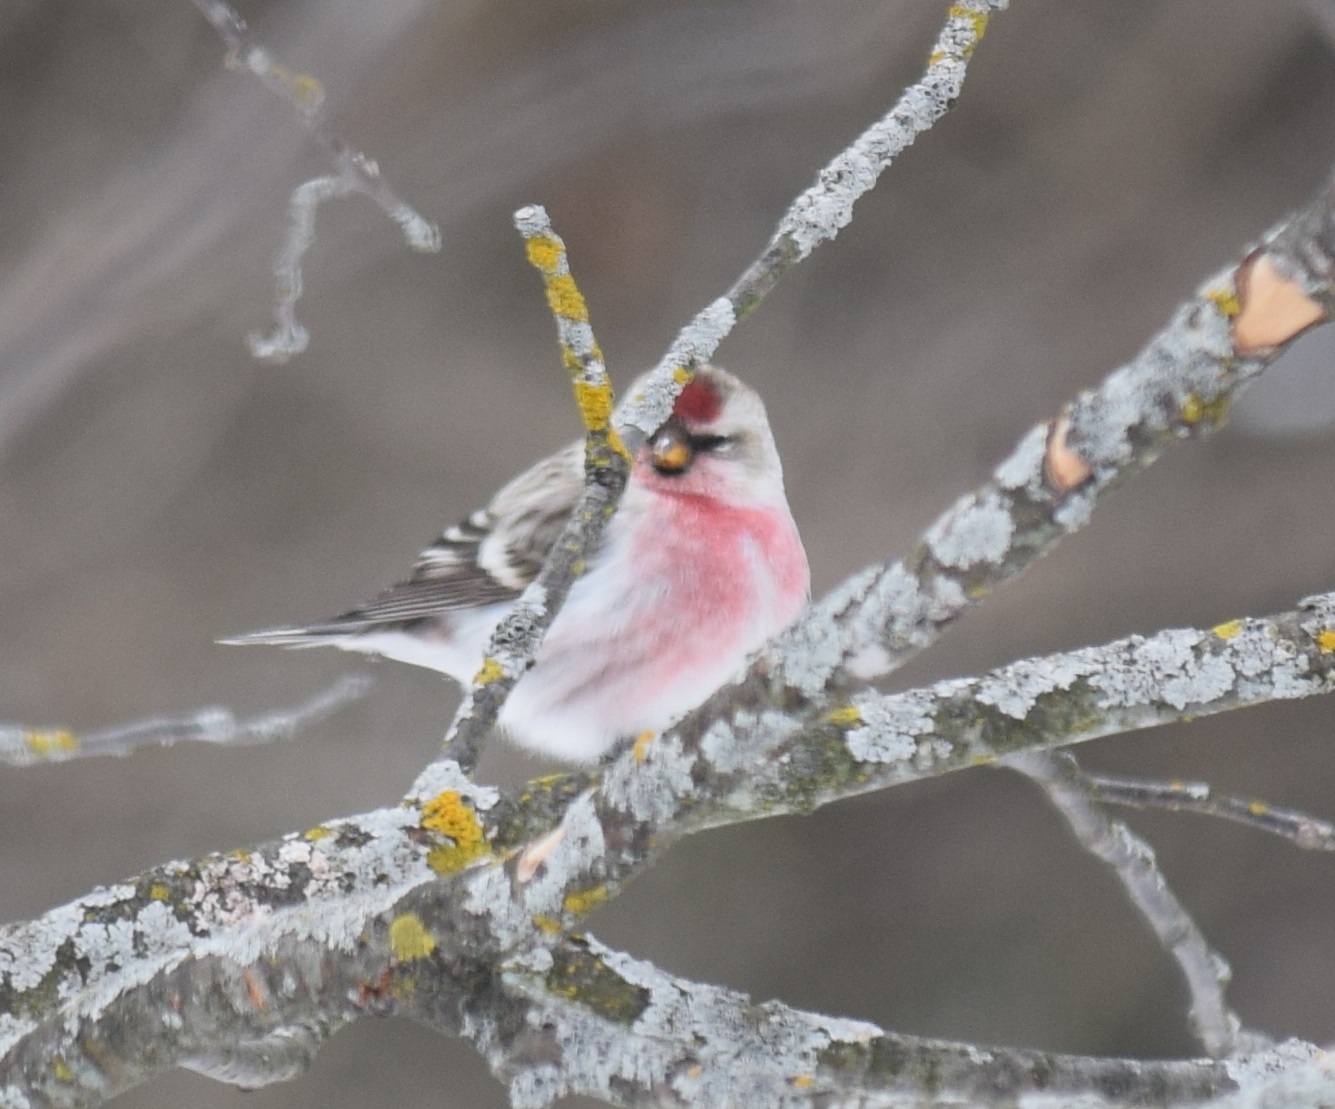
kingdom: Animalia
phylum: Chordata
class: Aves
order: Passeriformes
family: Fringillidae
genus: Acanthis
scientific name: Acanthis flammea
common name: Common redpoll
